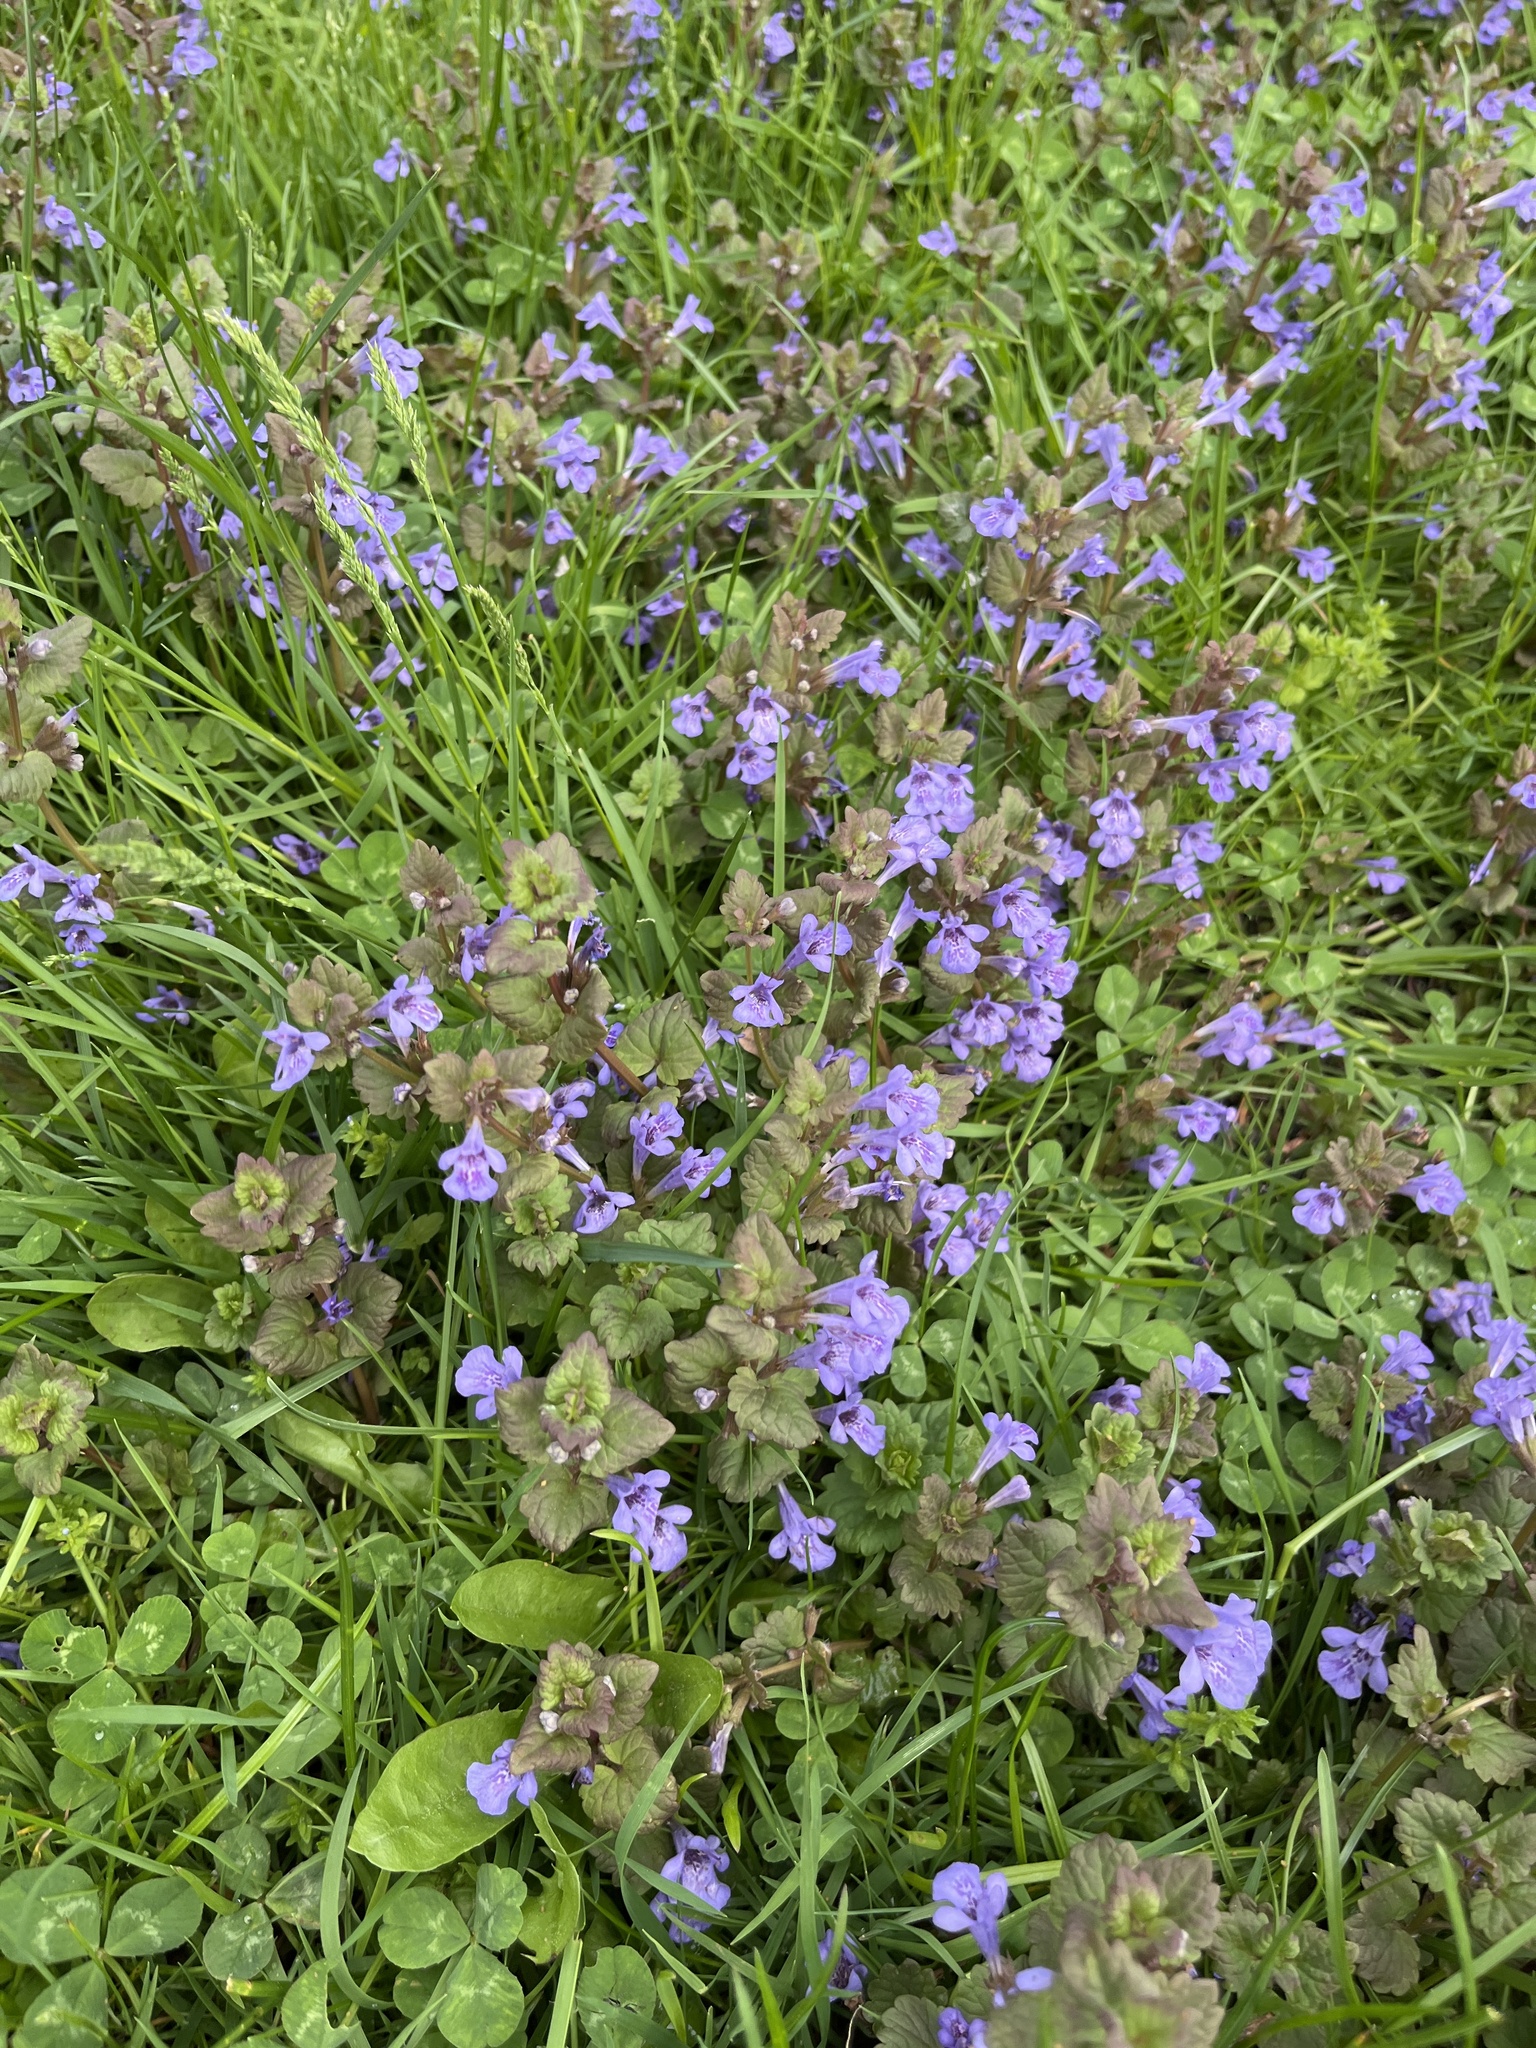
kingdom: Plantae
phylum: Tracheophyta
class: Magnoliopsida
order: Lamiales
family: Lamiaceae
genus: Glechoma
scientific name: Glechoma hederacea
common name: Ground ivy
